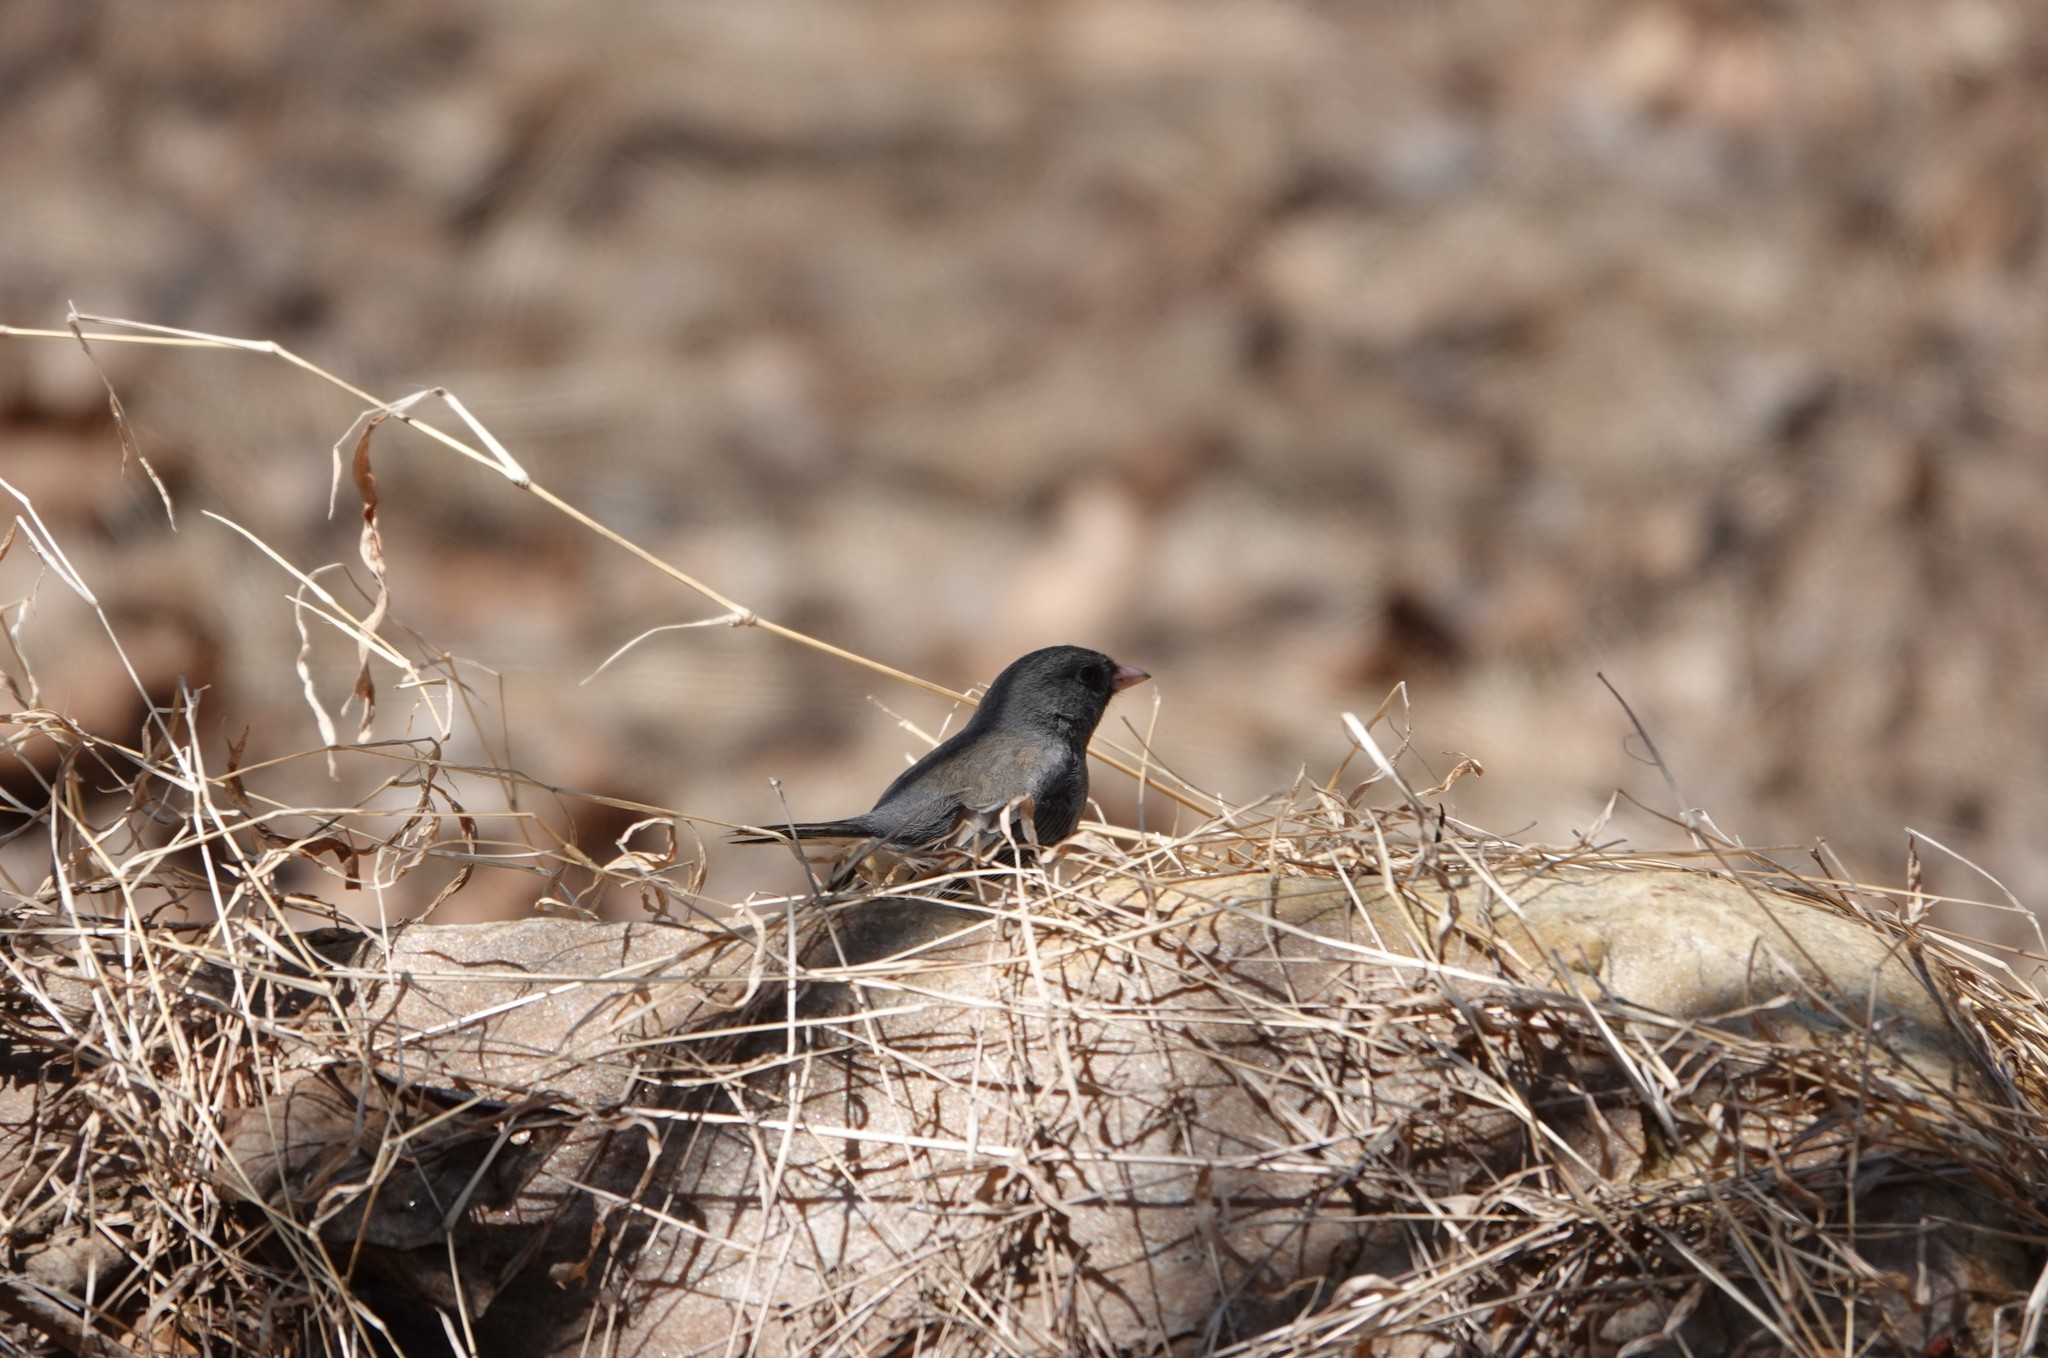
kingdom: Animalia
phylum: Chordata
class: Aves
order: Passeriformes
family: Passerellidae
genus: Junco
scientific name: Junco hyemalis
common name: Dark-eyed junco
